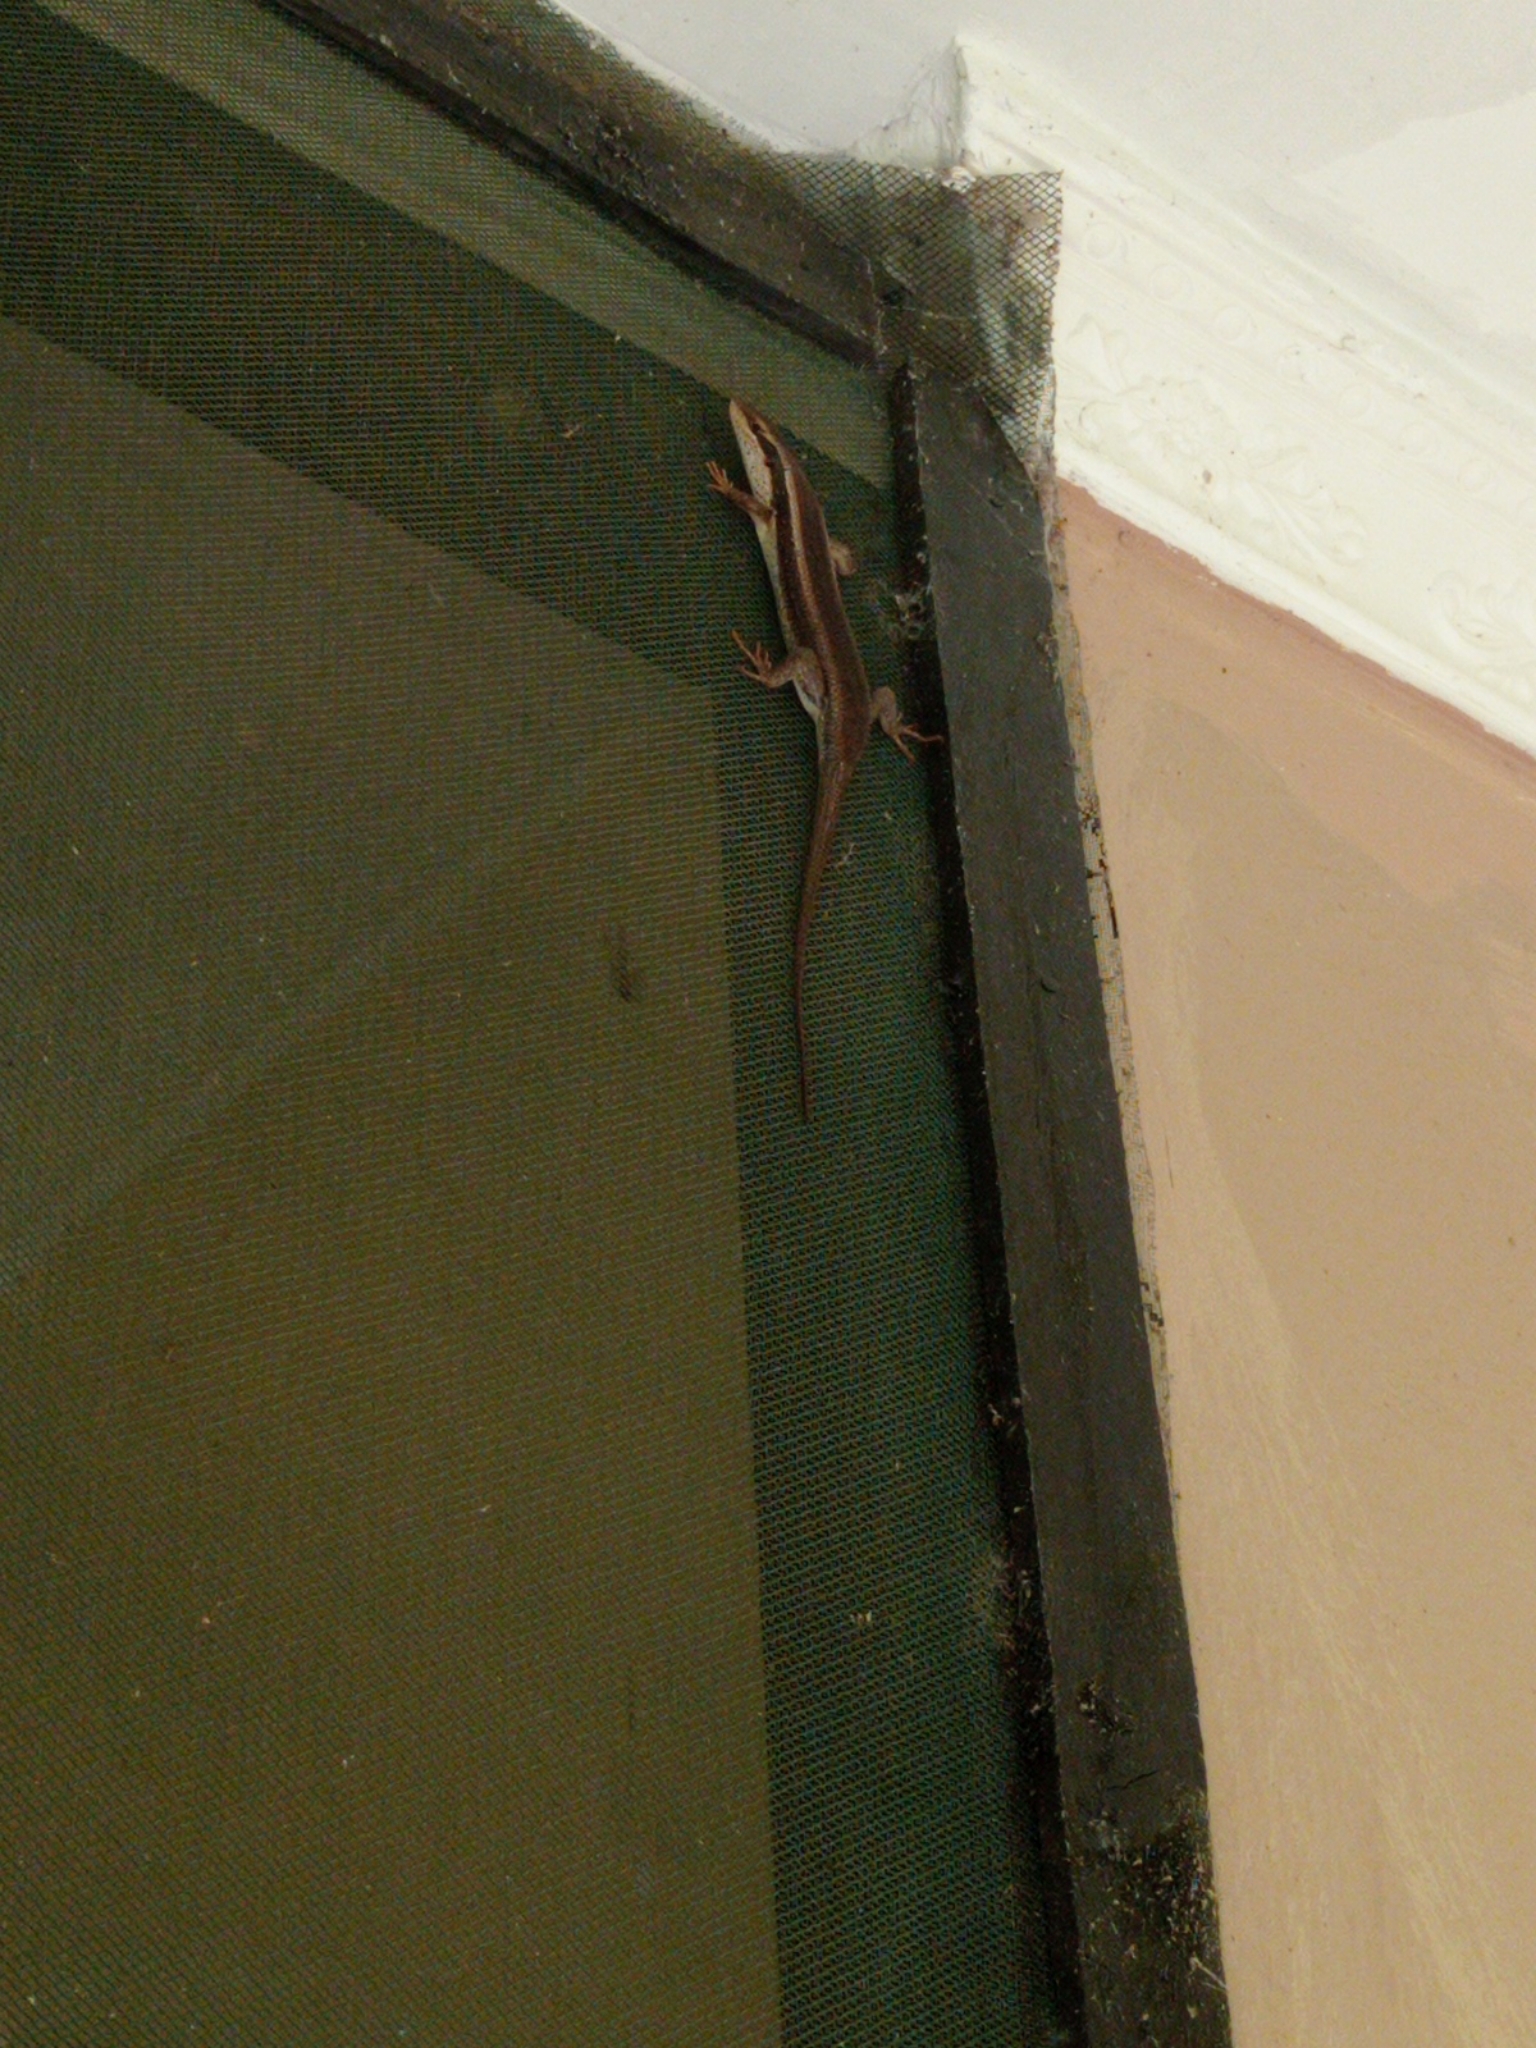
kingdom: Animalia
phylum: Chordata
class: Squamata
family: Scincidae
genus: Trachylepis
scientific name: Trachylepis striata
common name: African striped mabuya
